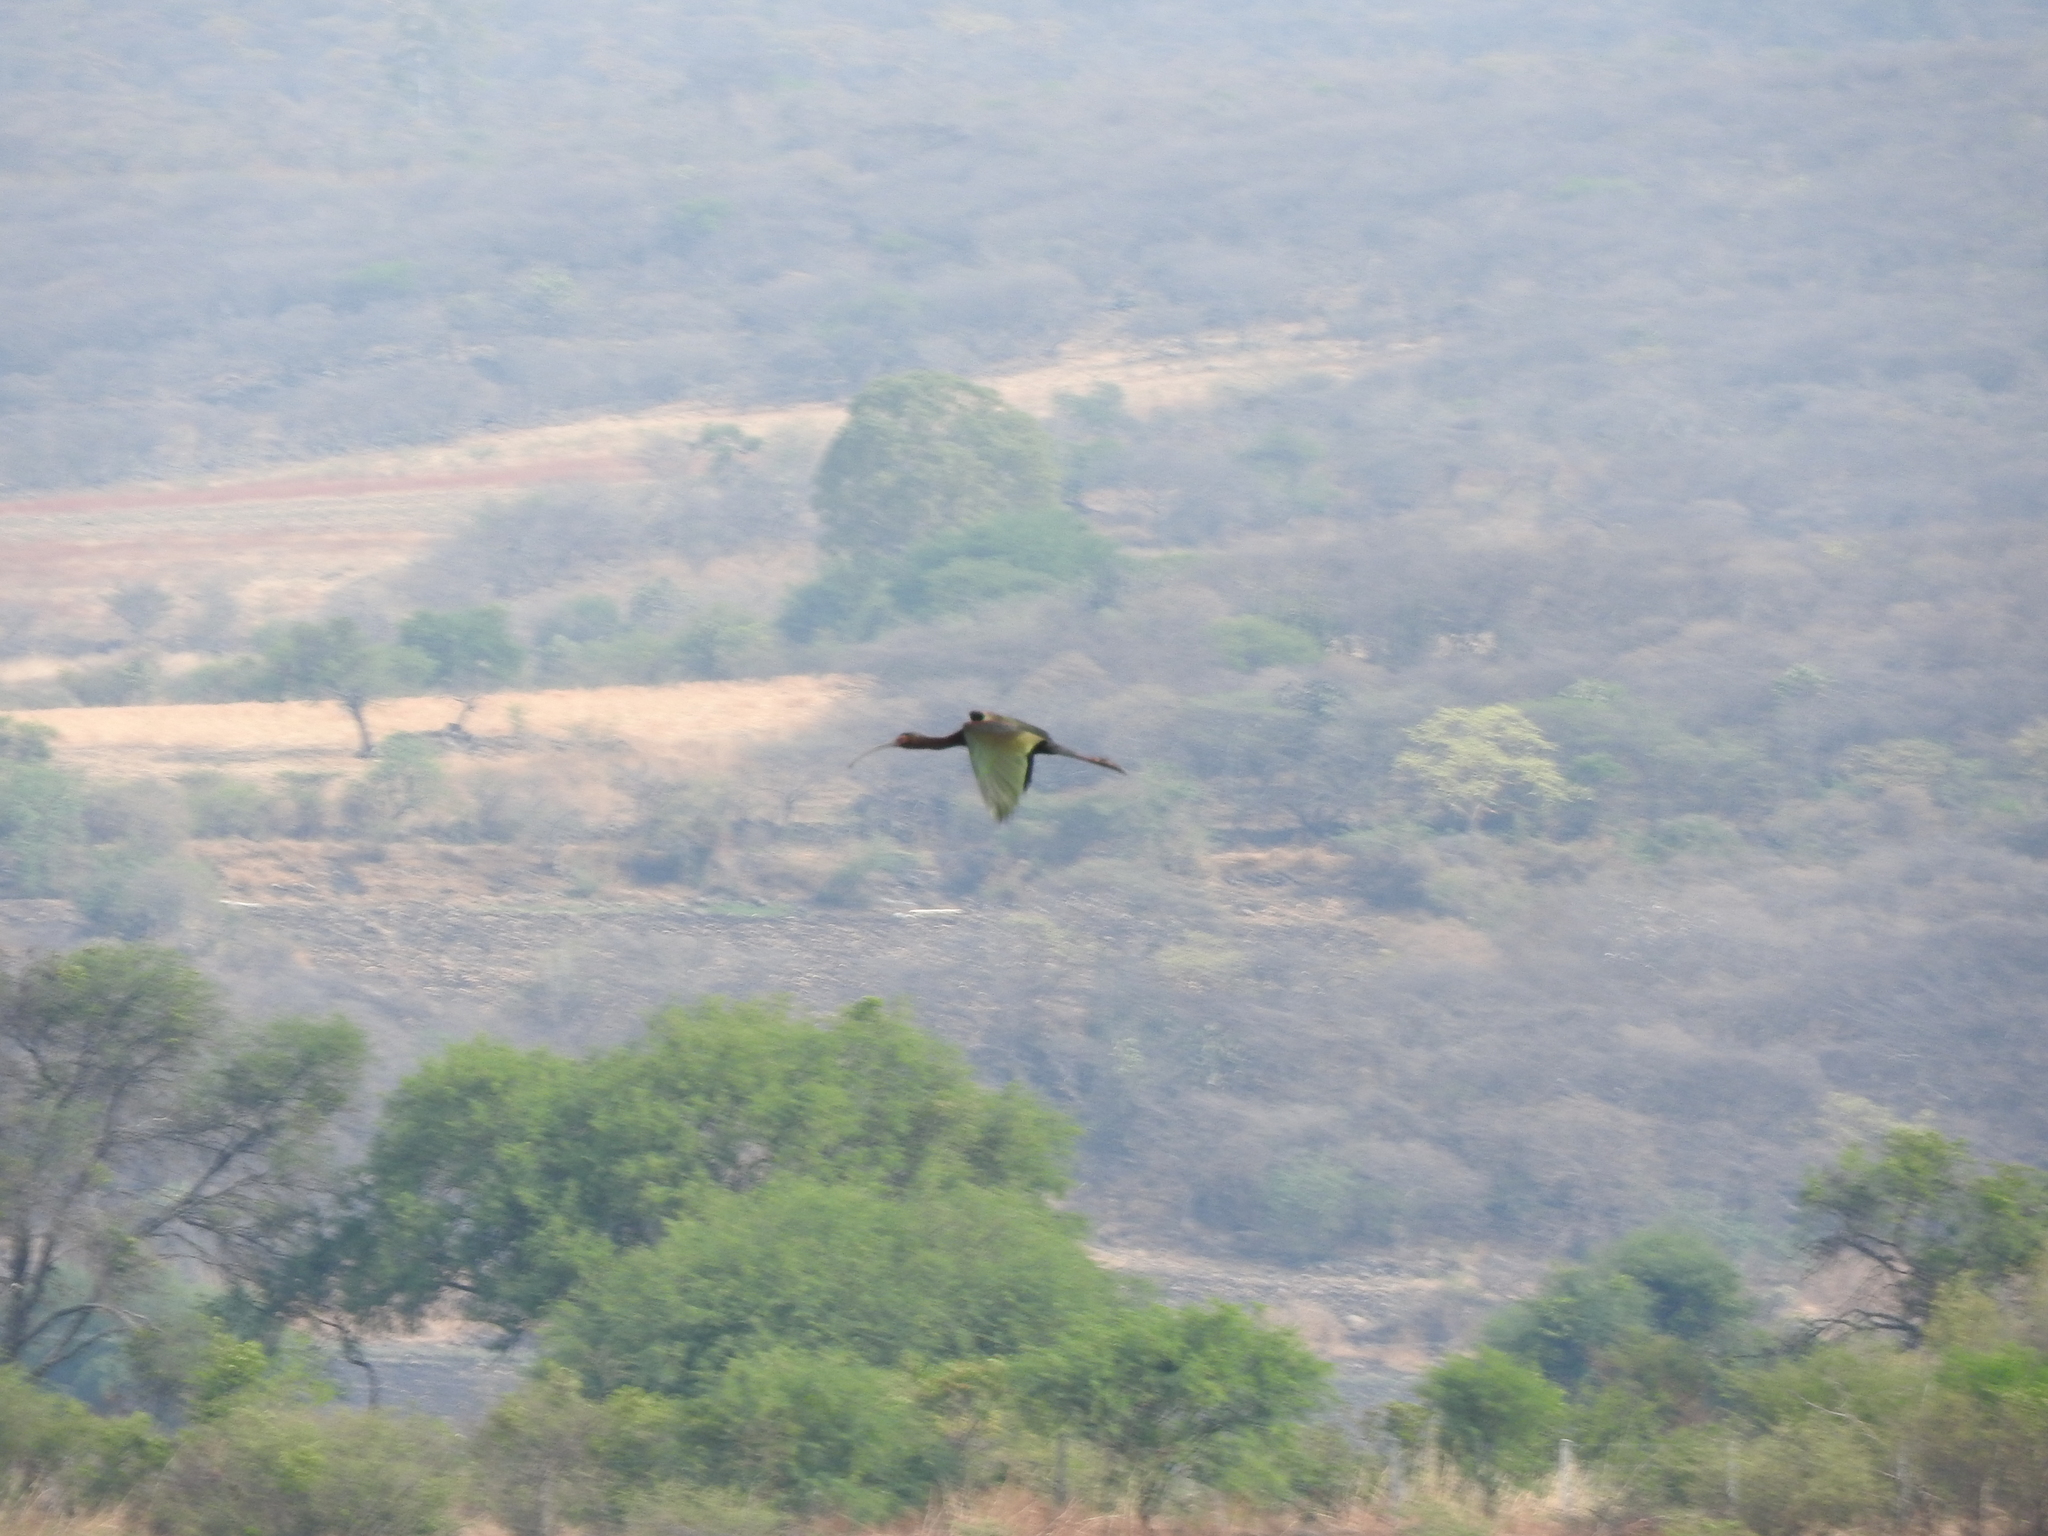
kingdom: Animalia
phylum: Chordata
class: Aves
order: Pelecaniformes
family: Threskiornithidae
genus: Plegadis
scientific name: Plegadis chihi
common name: White-faced ibis
